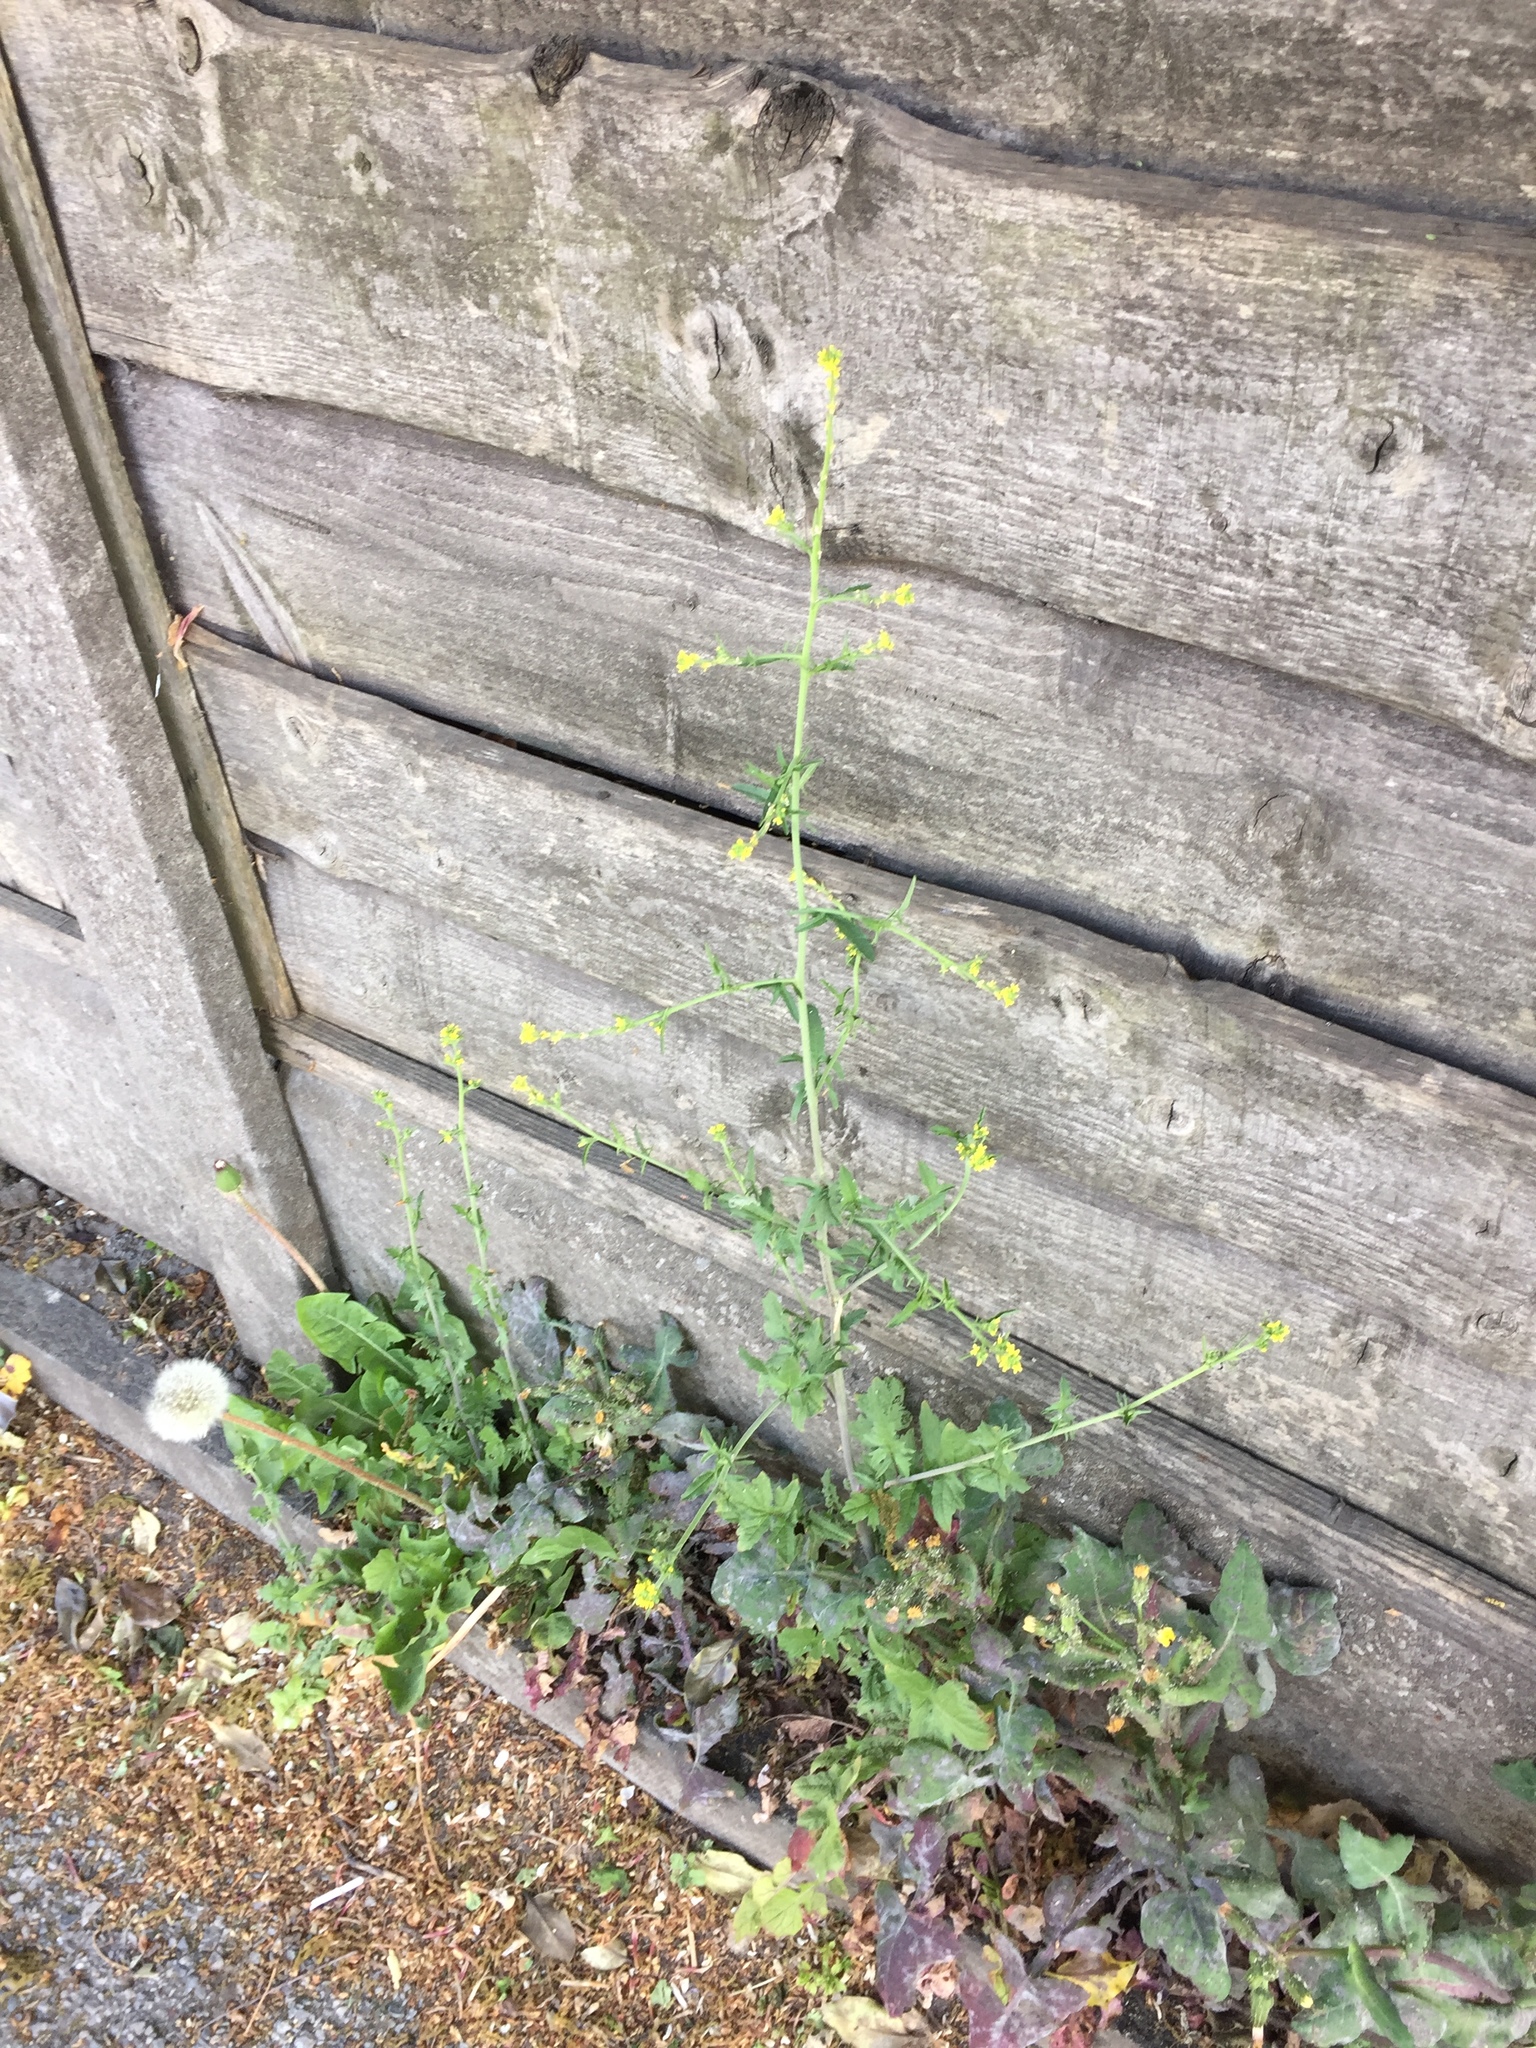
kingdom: Plantae
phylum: Tracheophyta
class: Magnoliopsida
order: Brassicales
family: Brassicaceae
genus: Sisymbrium
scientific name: Sisymbrium officinale
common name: Hedge mustard
